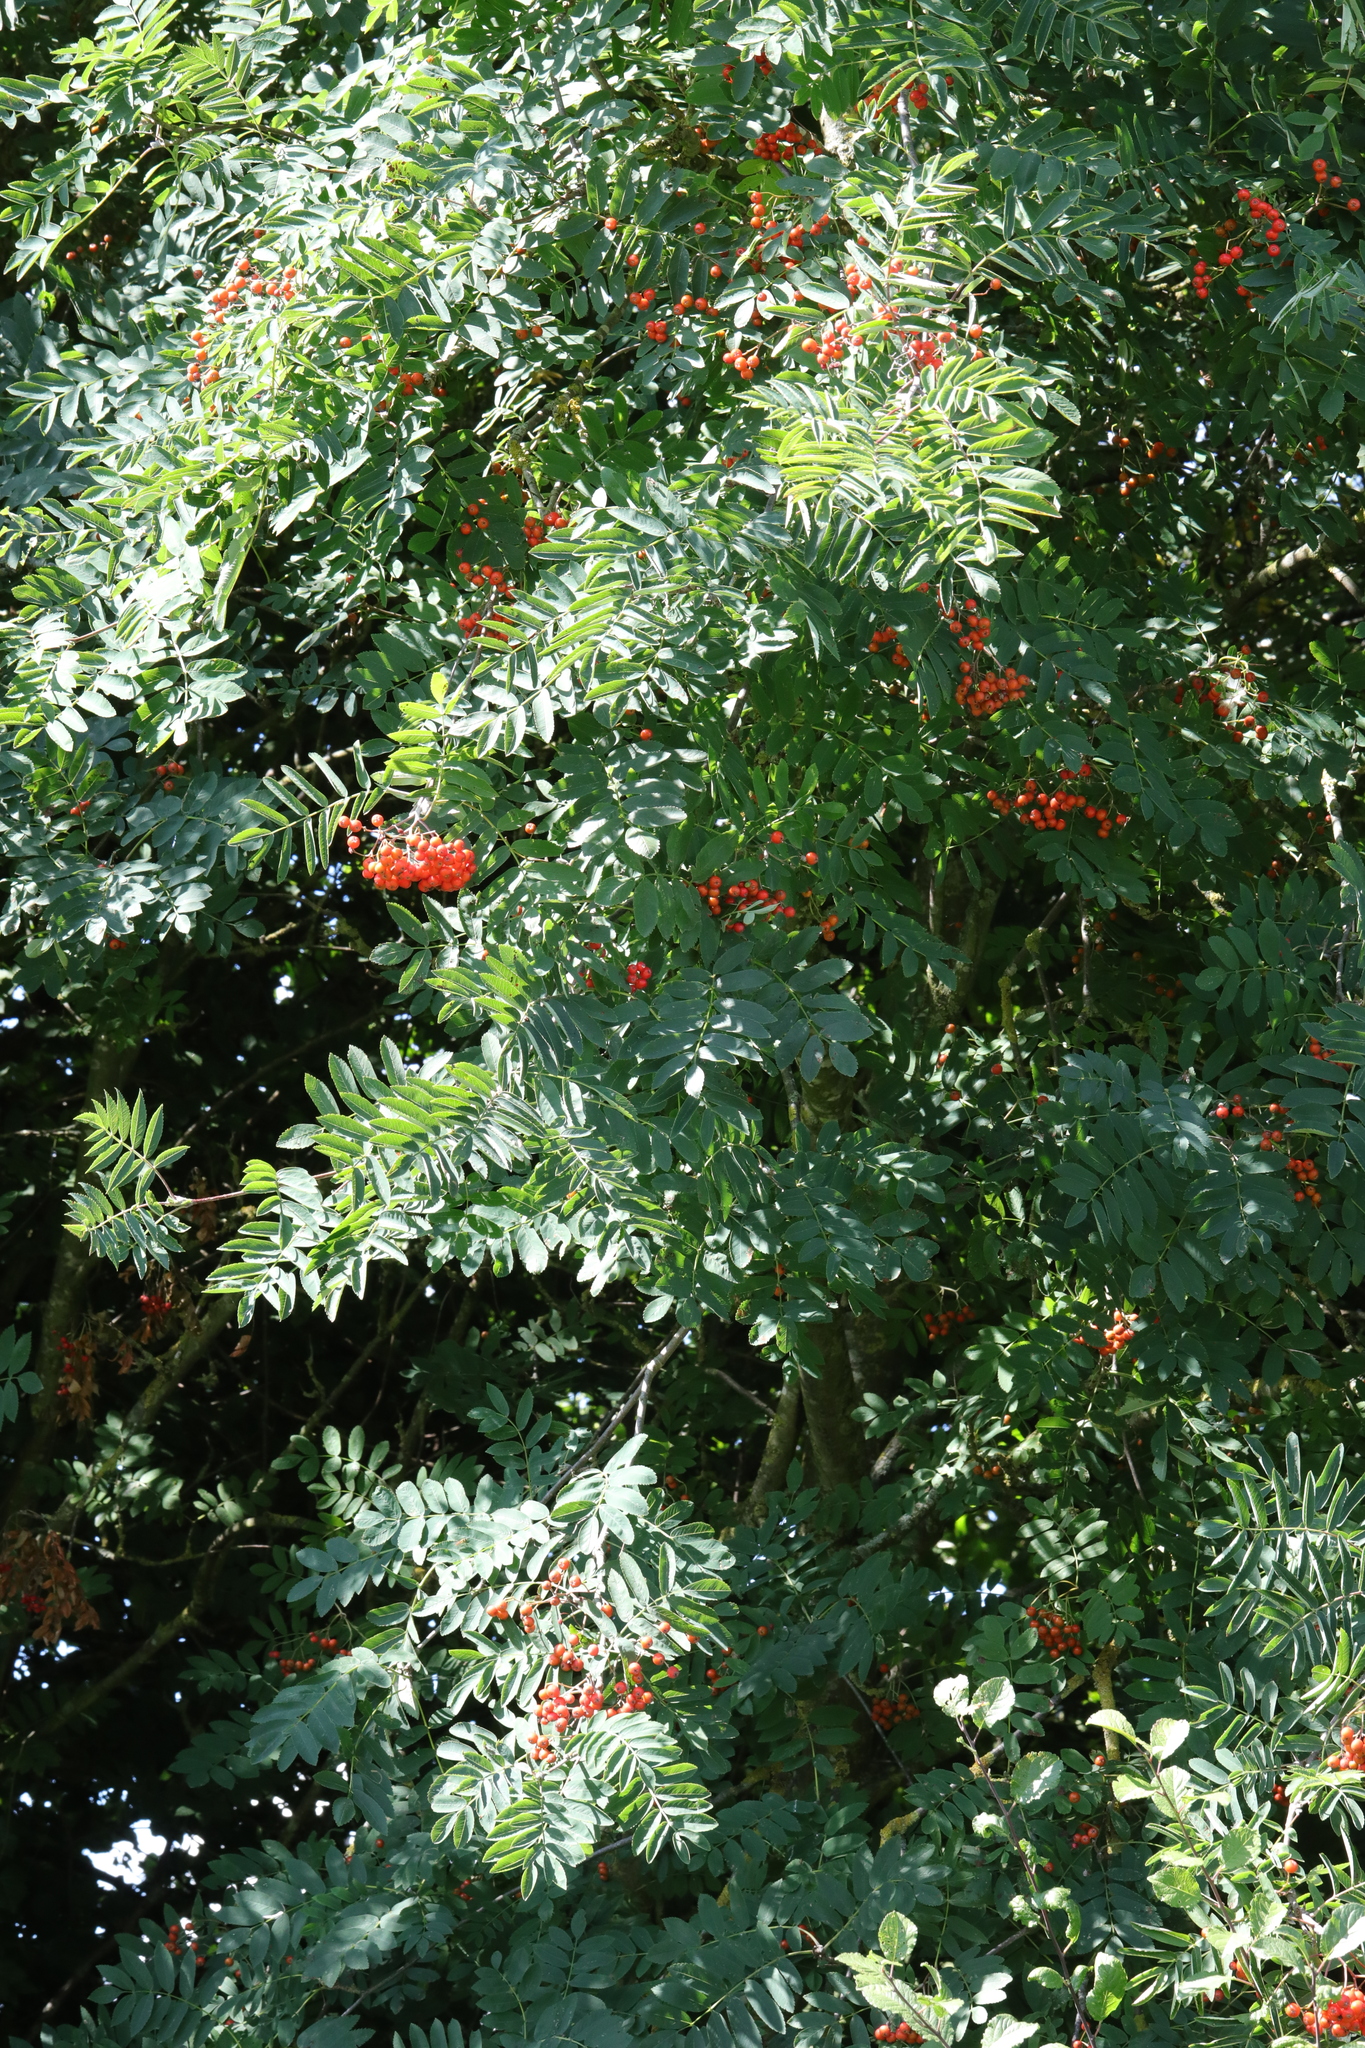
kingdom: Plantae
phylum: Tracheophyta
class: Magnoliopsida
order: Rosales
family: Rosaceae
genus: Sorbus
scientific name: Sorbus aucuparia
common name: Rowan
